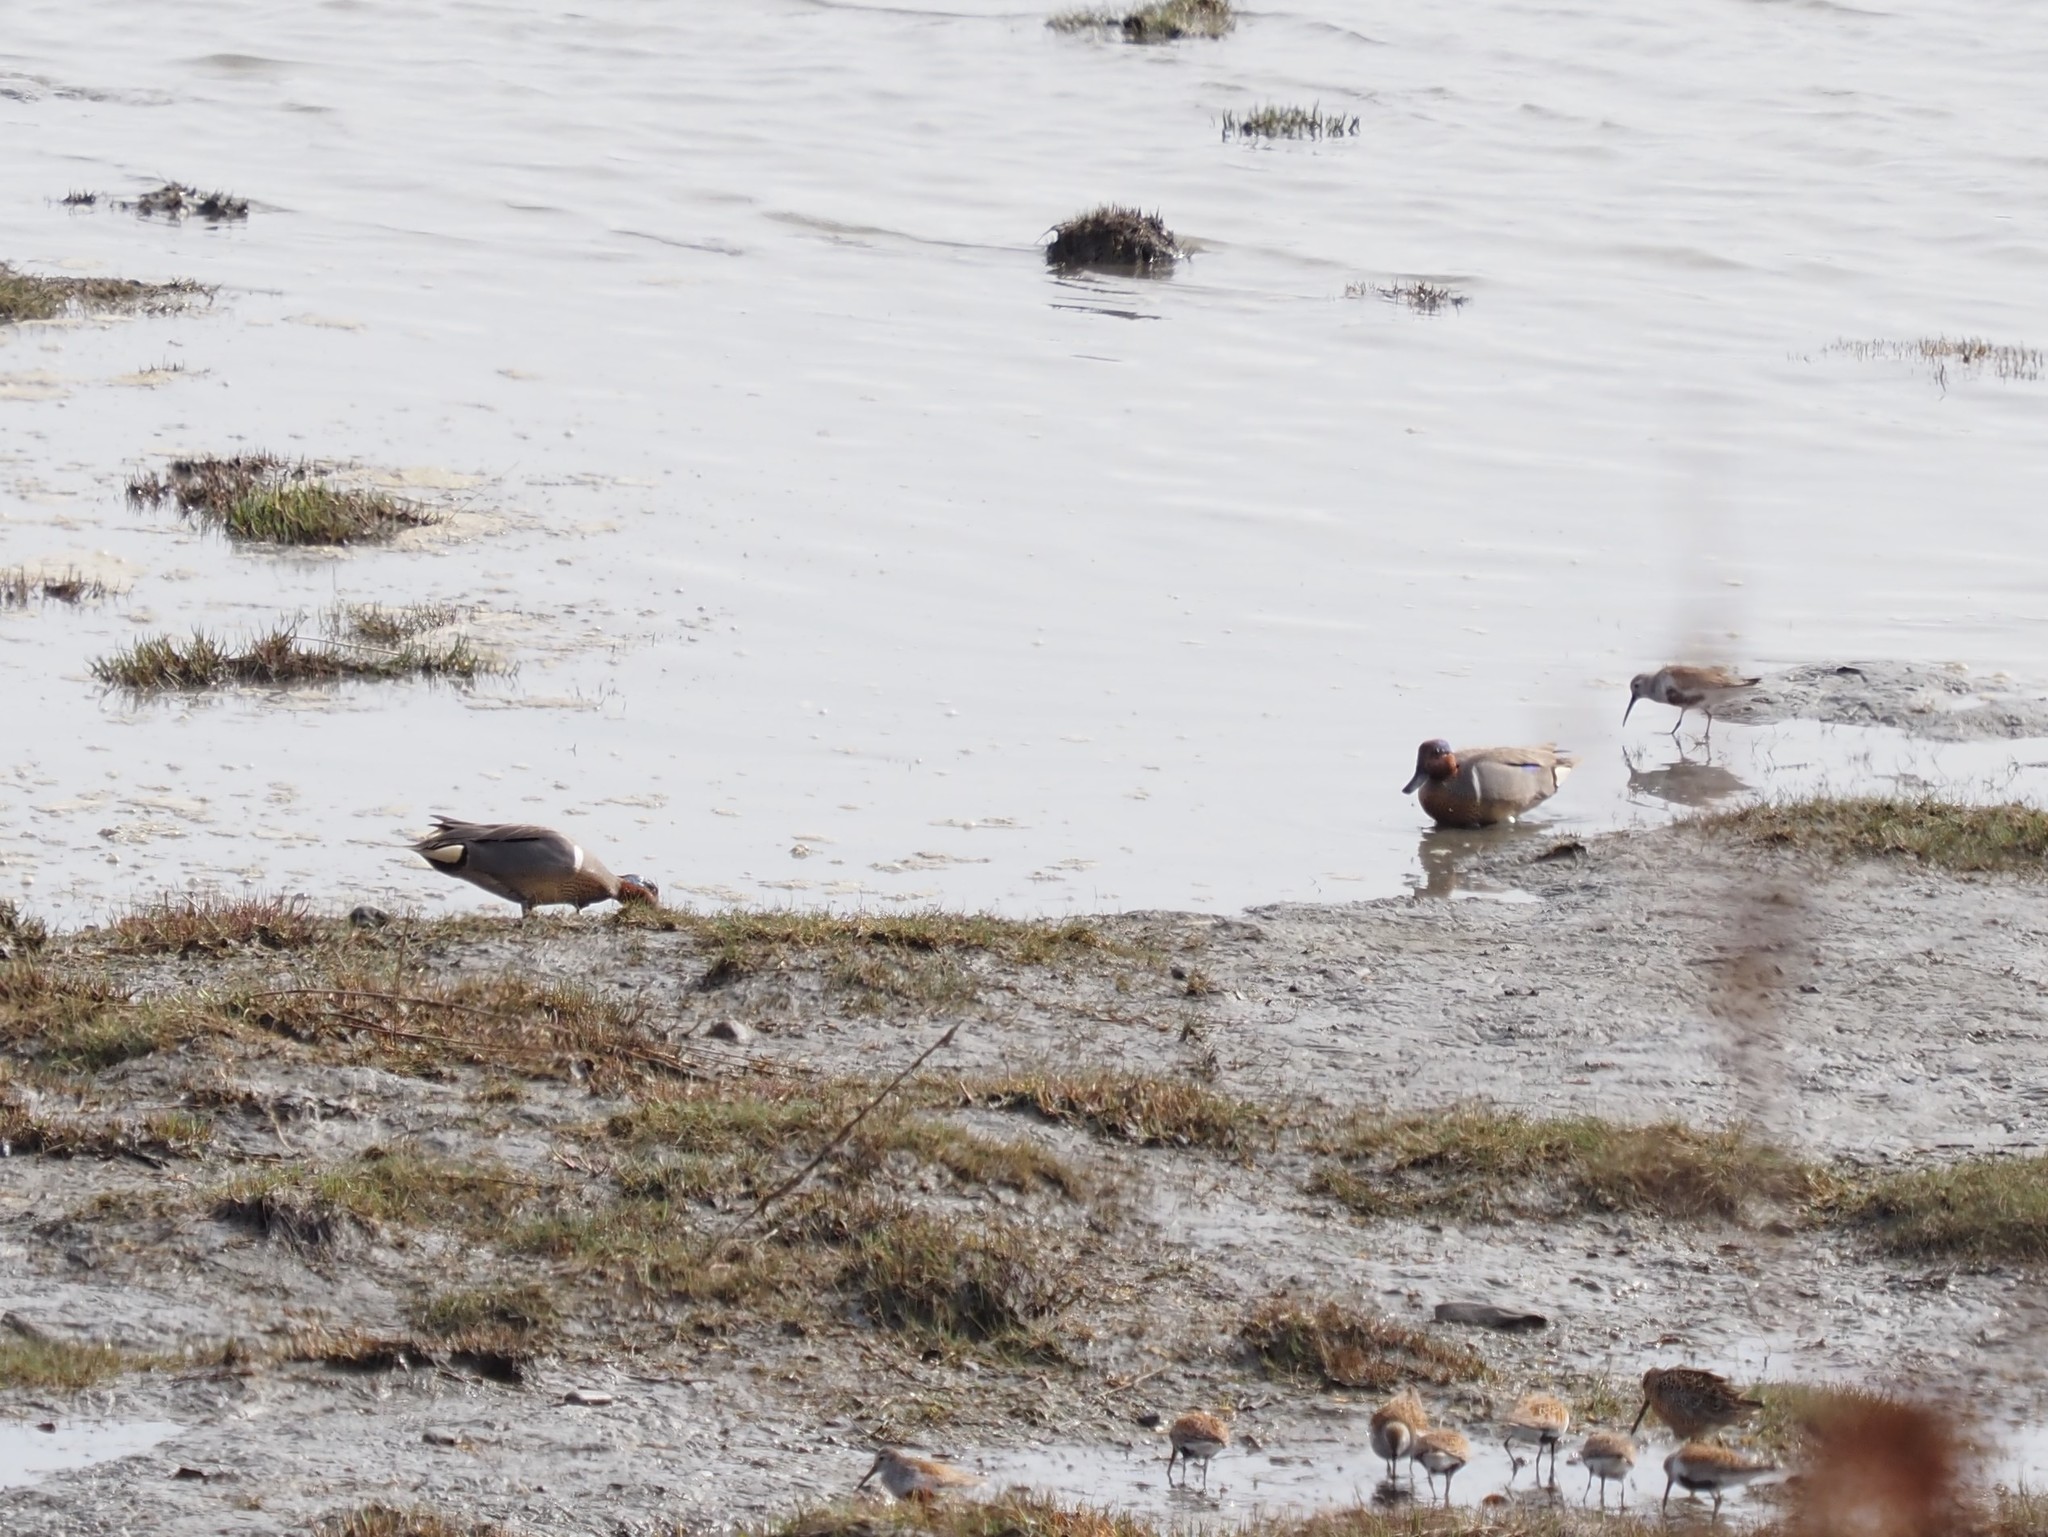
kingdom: Animalia
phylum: Chordata
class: Aves
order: Anseriformes
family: Anatidae
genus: Anas
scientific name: Anas crecca
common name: Eurasian teal
